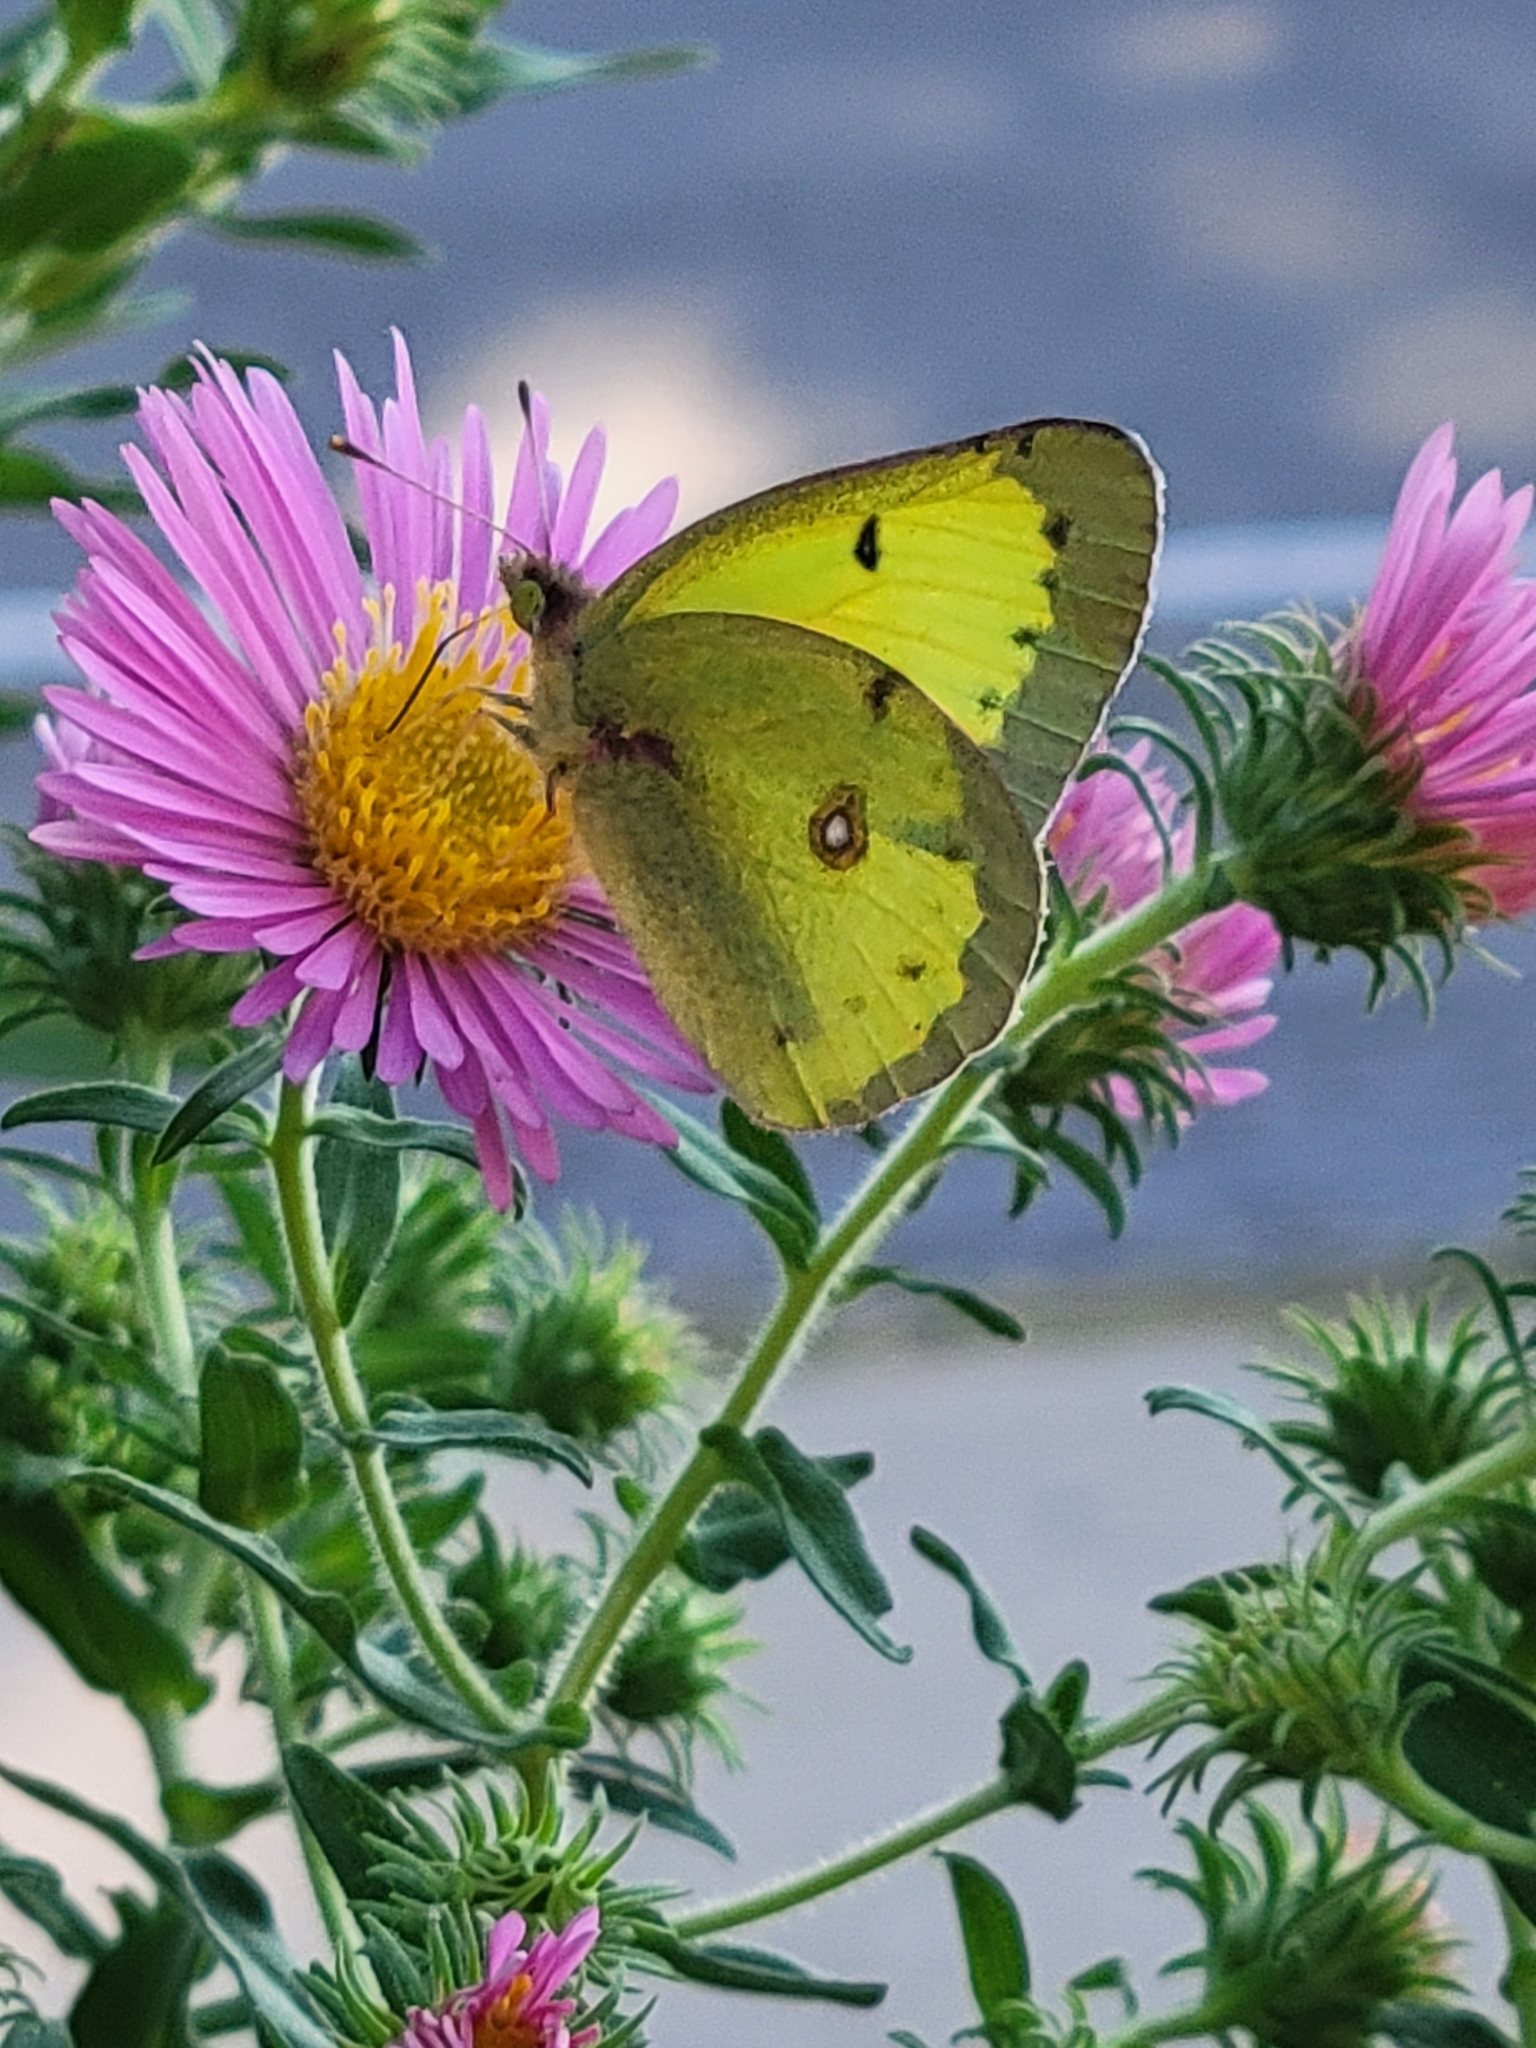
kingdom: Animalia
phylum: Arthropoda
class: Insecta
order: Lepidoptera
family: Pieridae
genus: Colias
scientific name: Colias philodice
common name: Clouded sulphur
